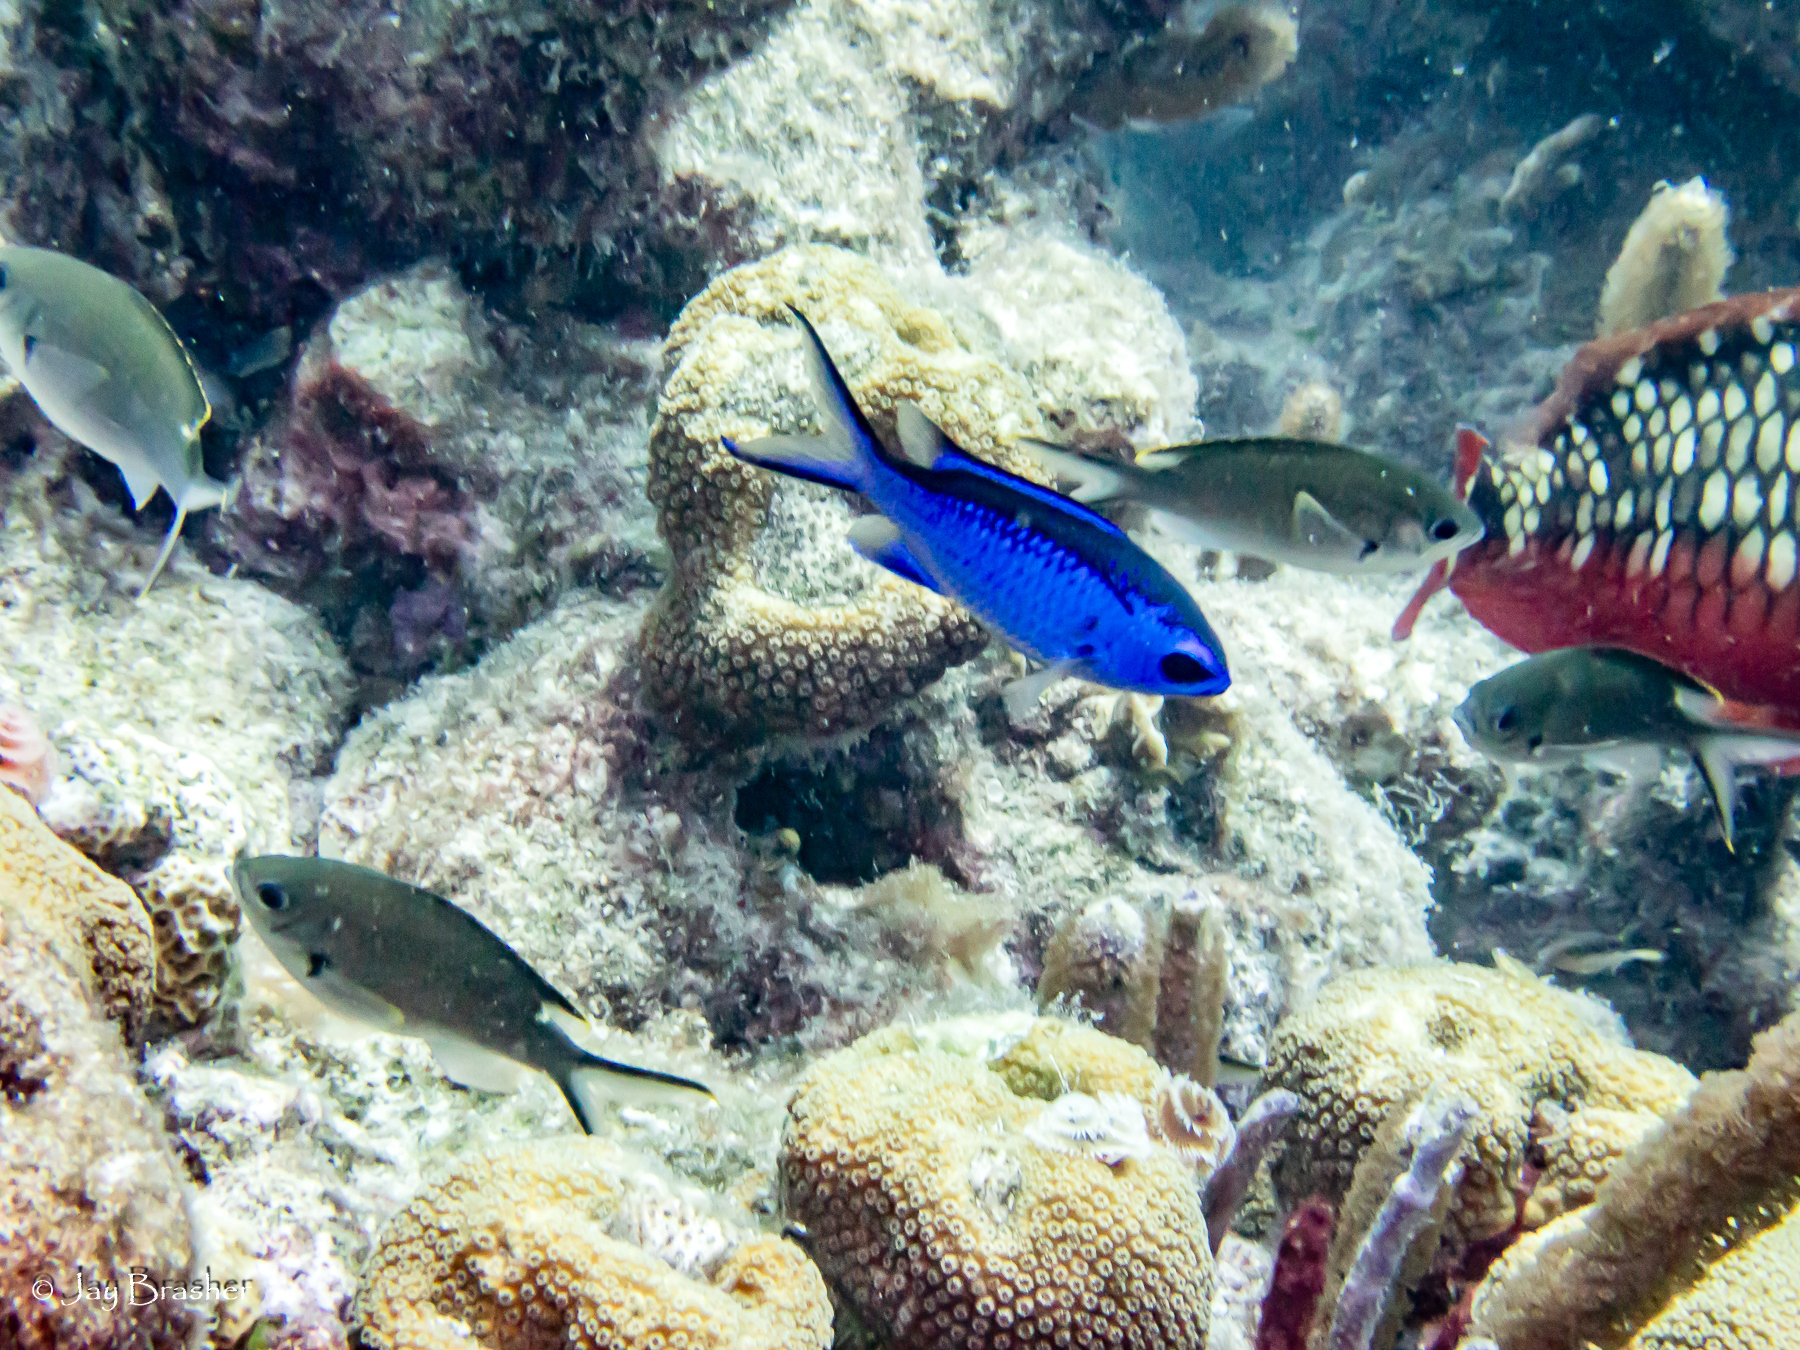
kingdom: Animalia
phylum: Chordata
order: Perciformes
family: Pomacentridae
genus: Chromis
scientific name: Chromis cyanea
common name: Blue chromis
